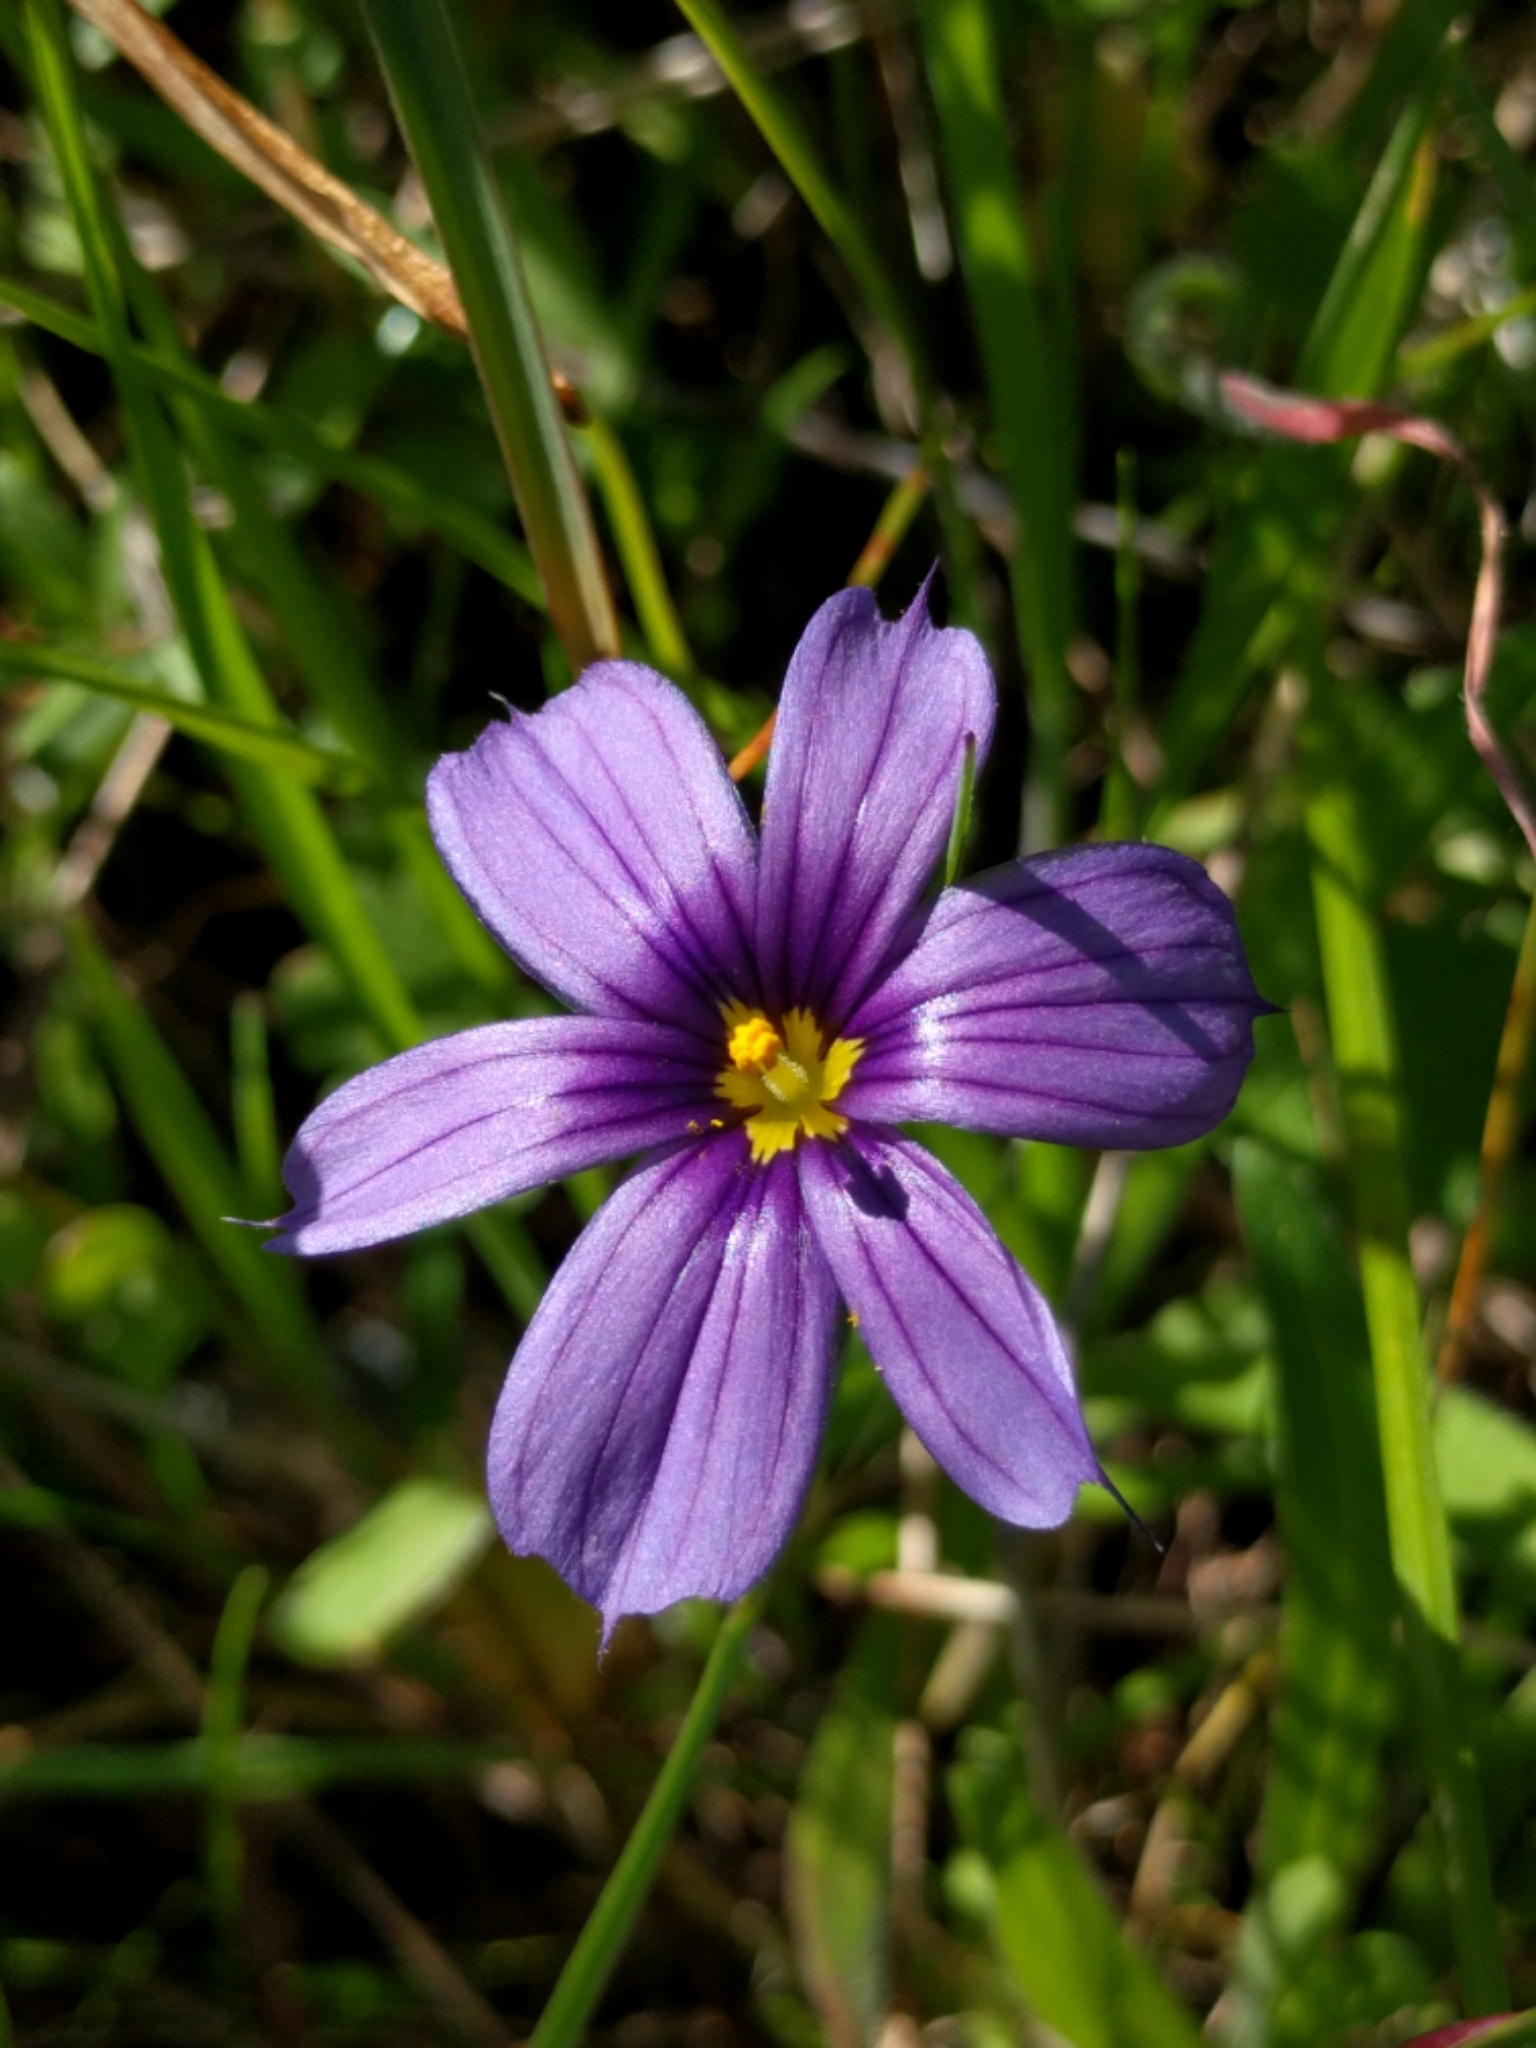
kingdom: Plantae
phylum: Tracheophyta
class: Liliopsida
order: Asparagales
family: Iridaceae
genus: Sisyrinchium
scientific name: Sisyrinchium bellum
